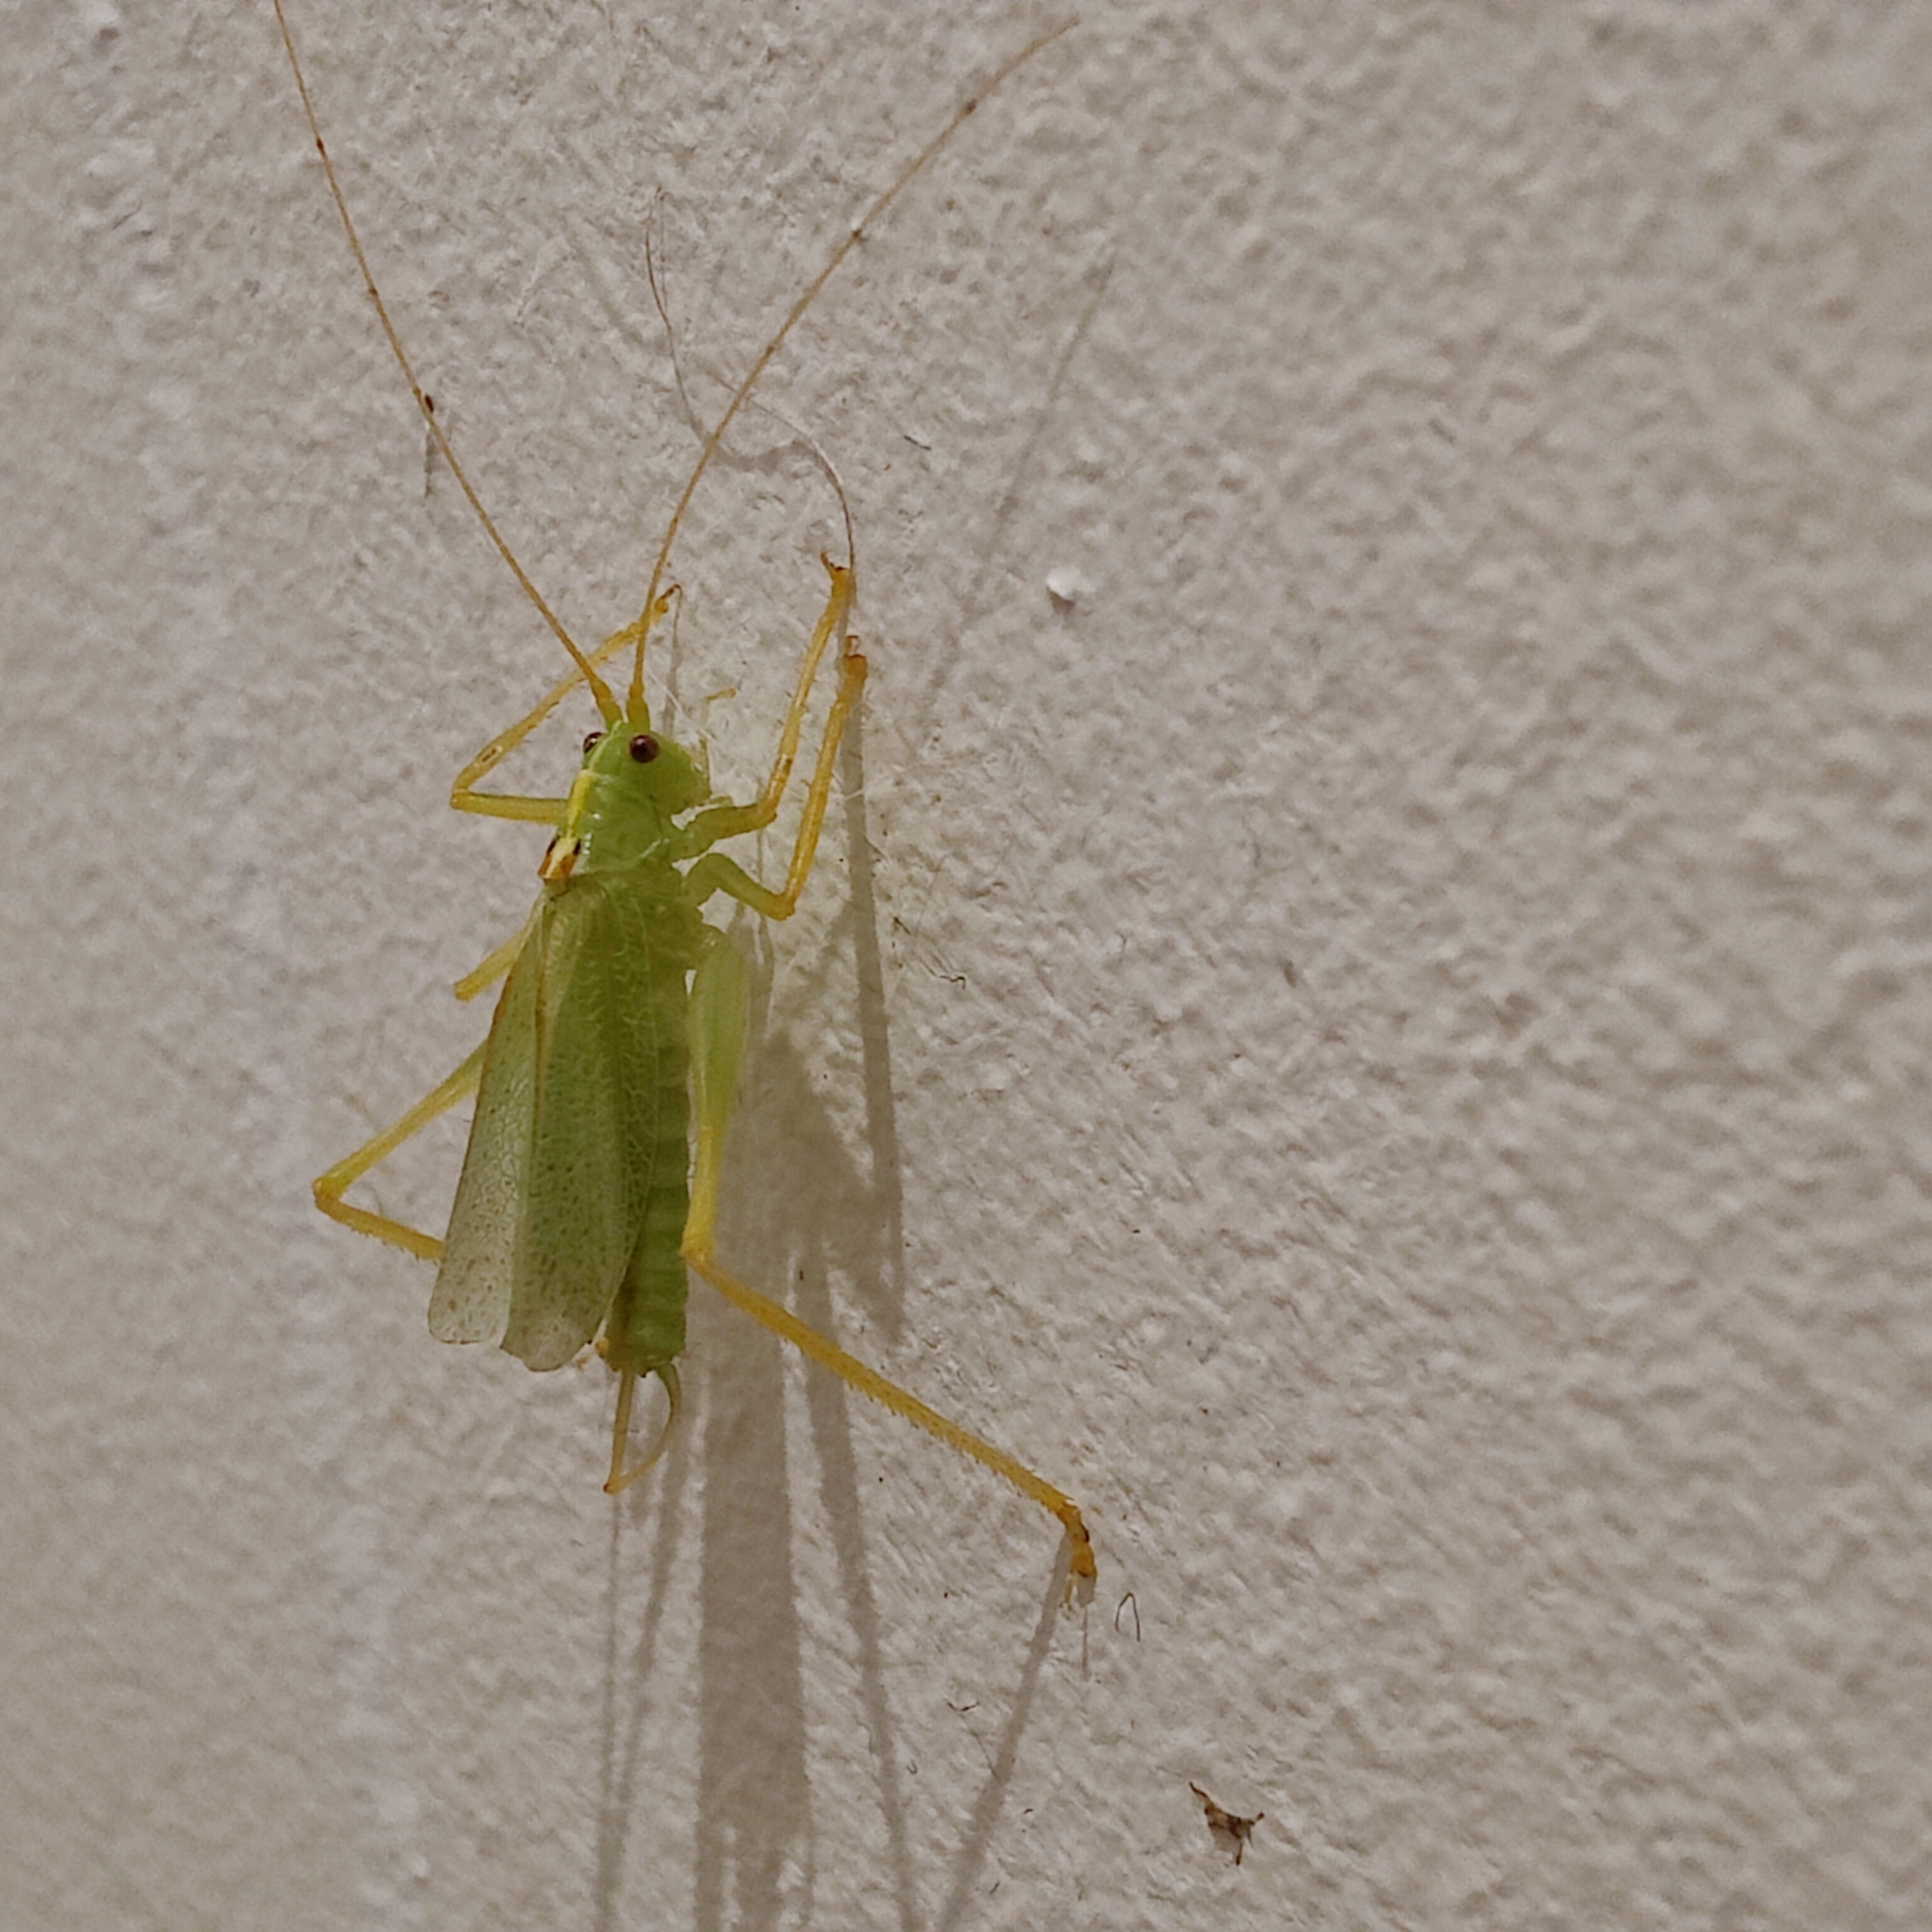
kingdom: Animalia
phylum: Arthropoda
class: Insecta
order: Orthoptera
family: Tettigoniidae
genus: Meconema
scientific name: Meconema thalassinum
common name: Oak bush-cricket
